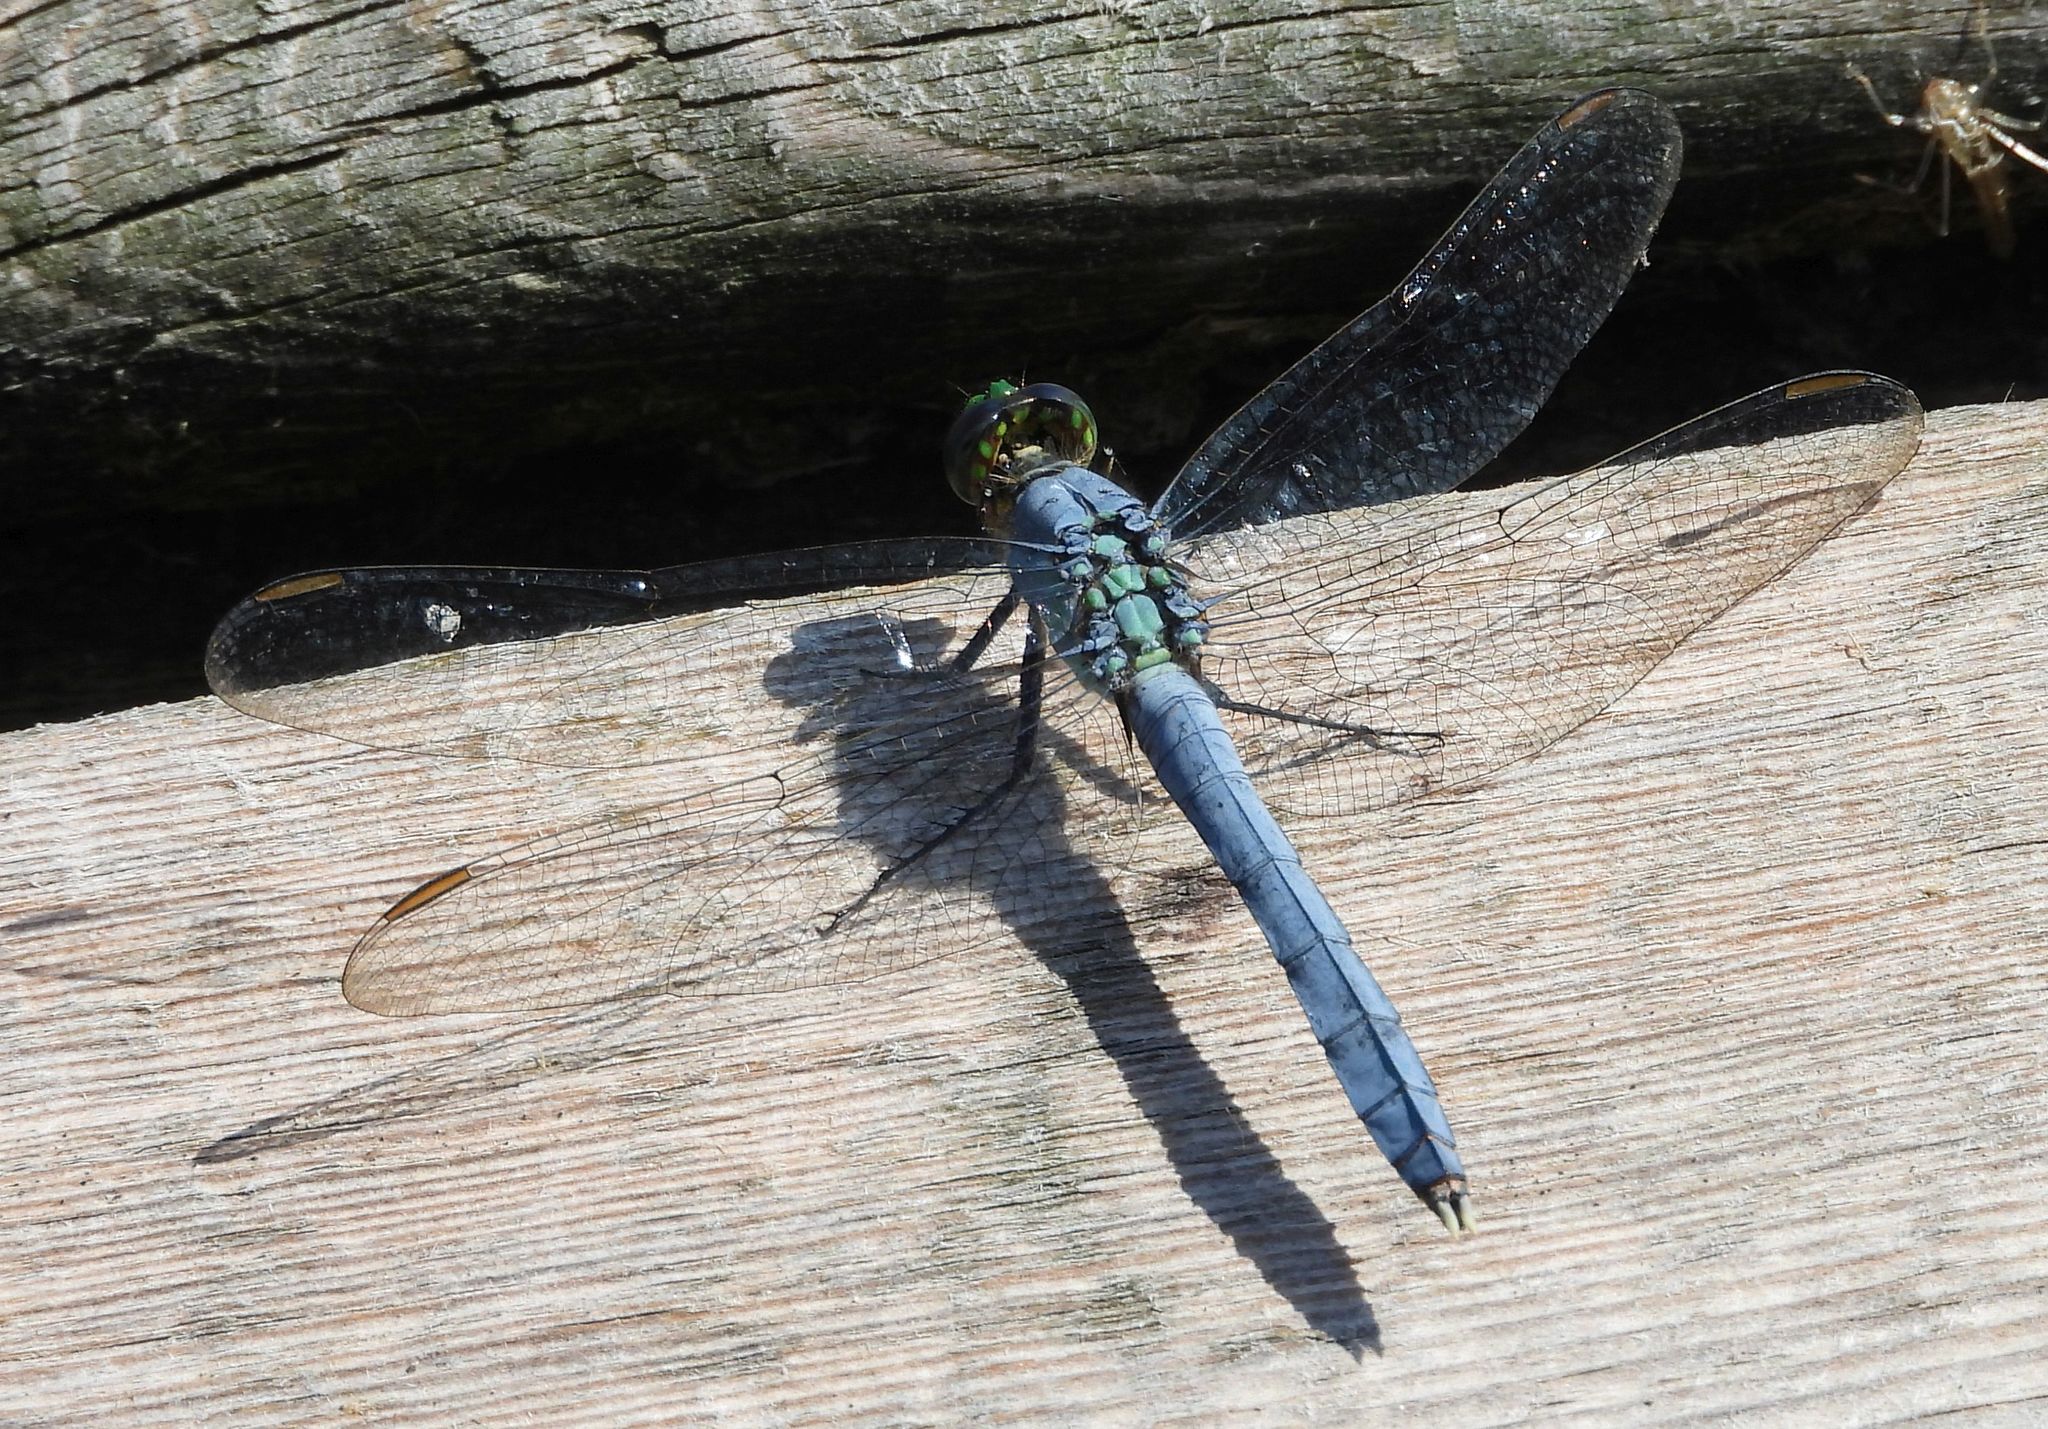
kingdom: Animalia
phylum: Arthropoda
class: Insecta
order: Odonata
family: Libellulidae
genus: Erythemis
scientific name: Erythemis simplicicollis
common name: Eastern pondhawk
